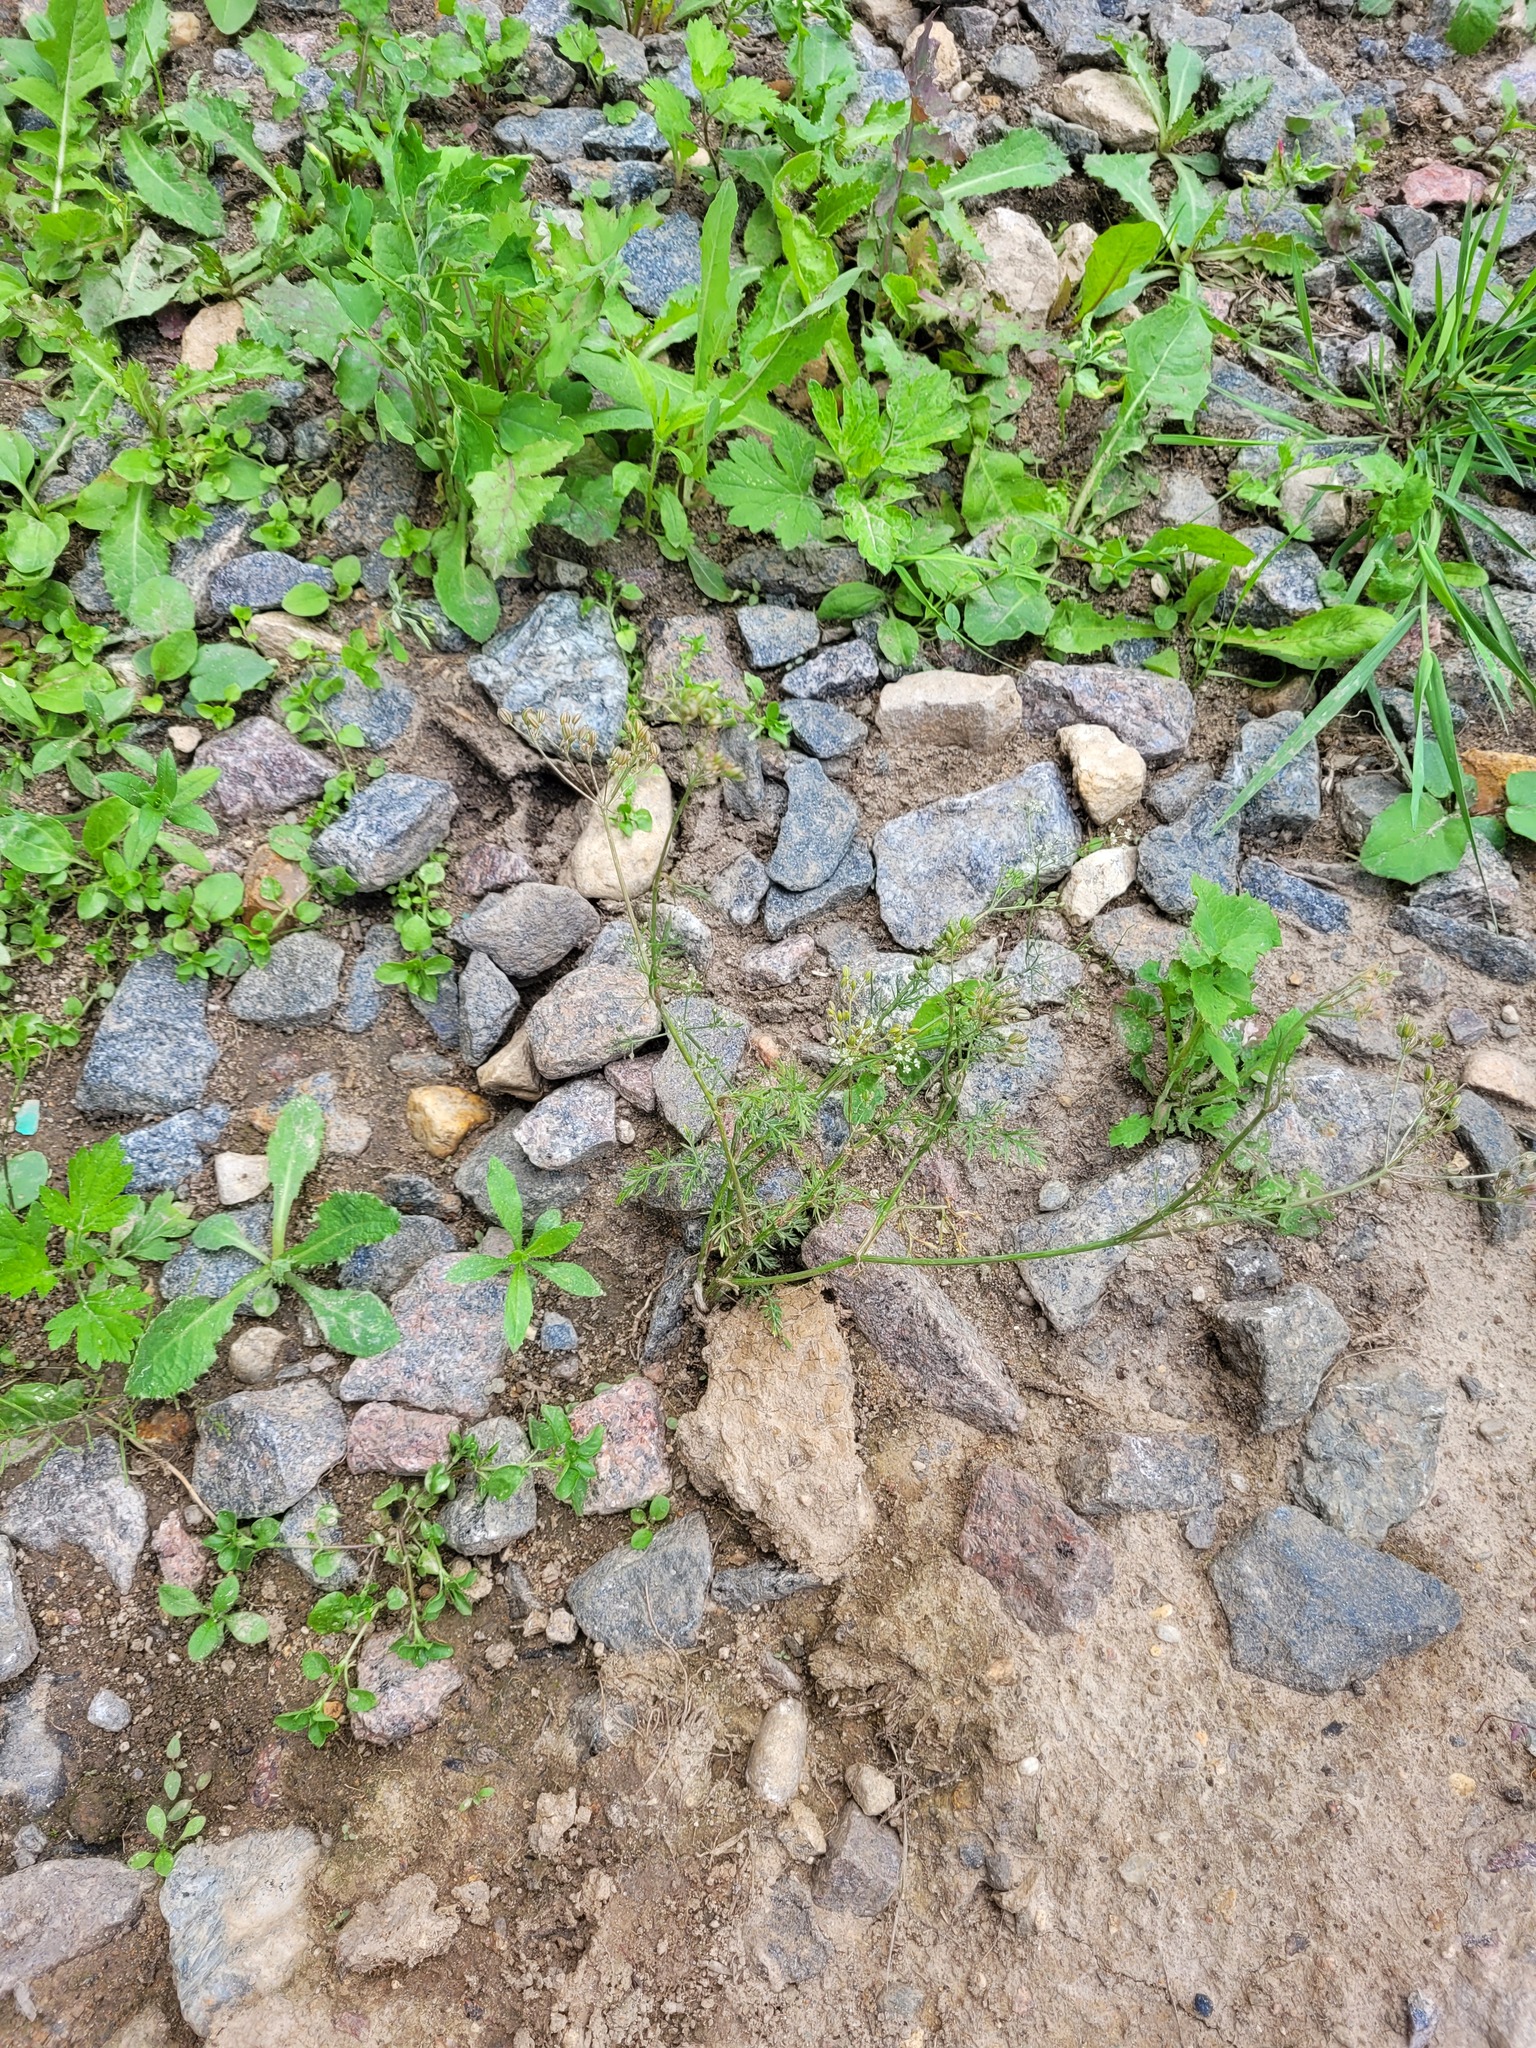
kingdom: Plantae
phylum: Tracheophyta
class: Magnoliopsida
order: Apiales
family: Apiaceae
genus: Carum
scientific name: Carum carvi
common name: Caraway
